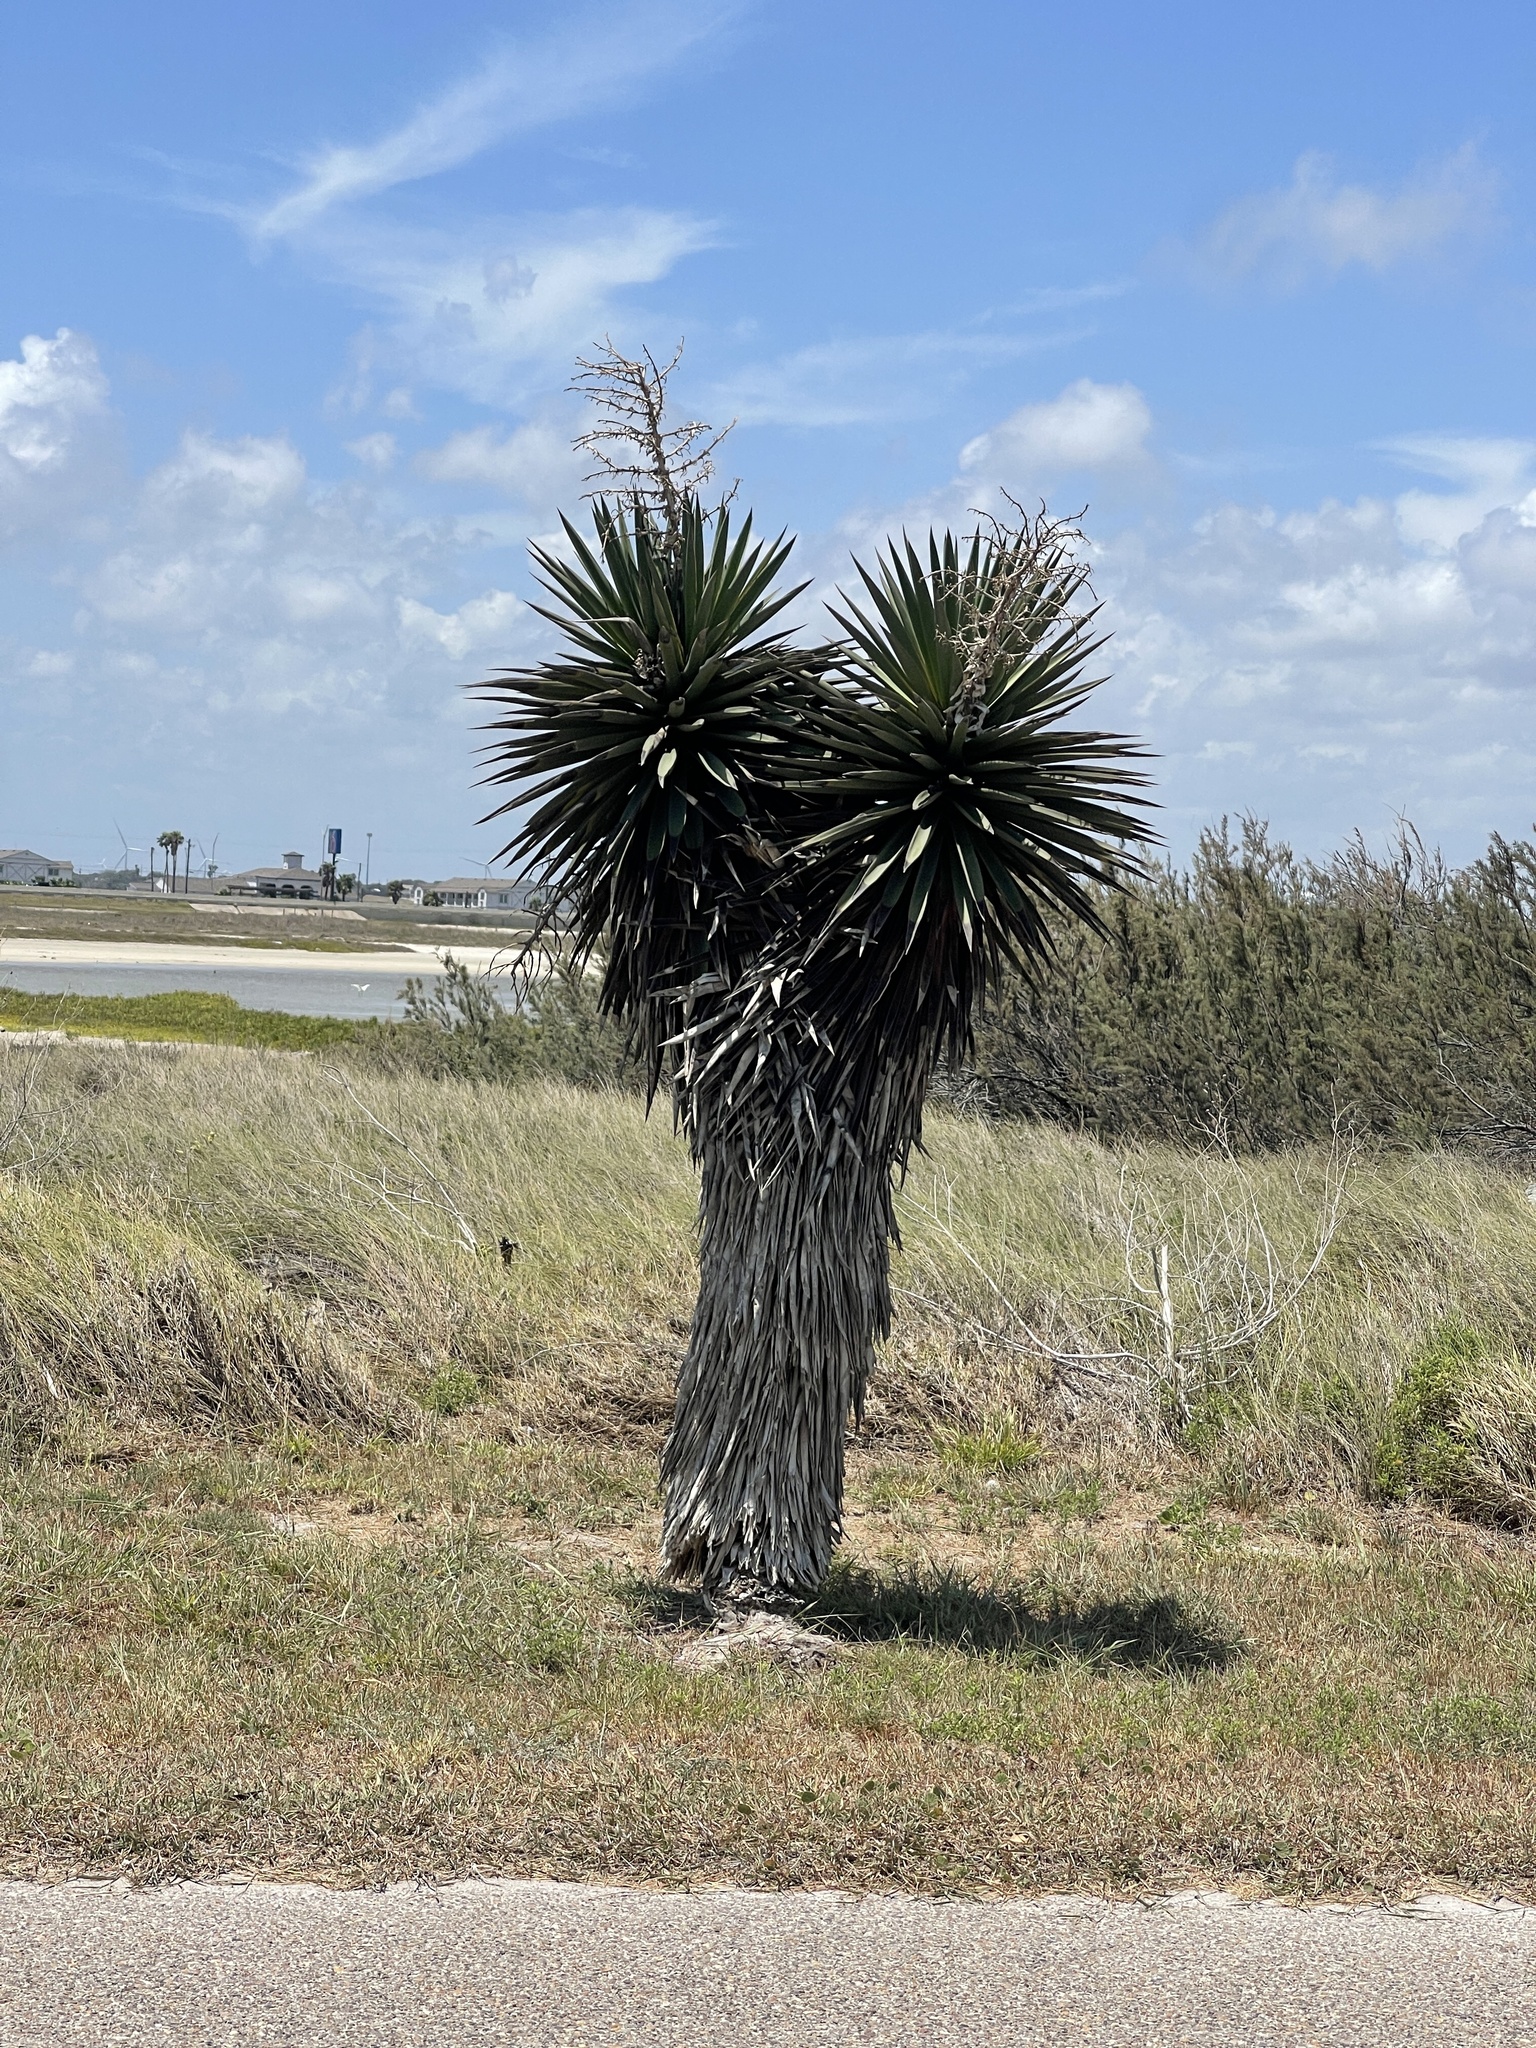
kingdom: Plantae
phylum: Tracheophyta
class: Liliopsida
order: Asparagales
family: Asparagaceae
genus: Yucca
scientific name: Yucca treculiana
